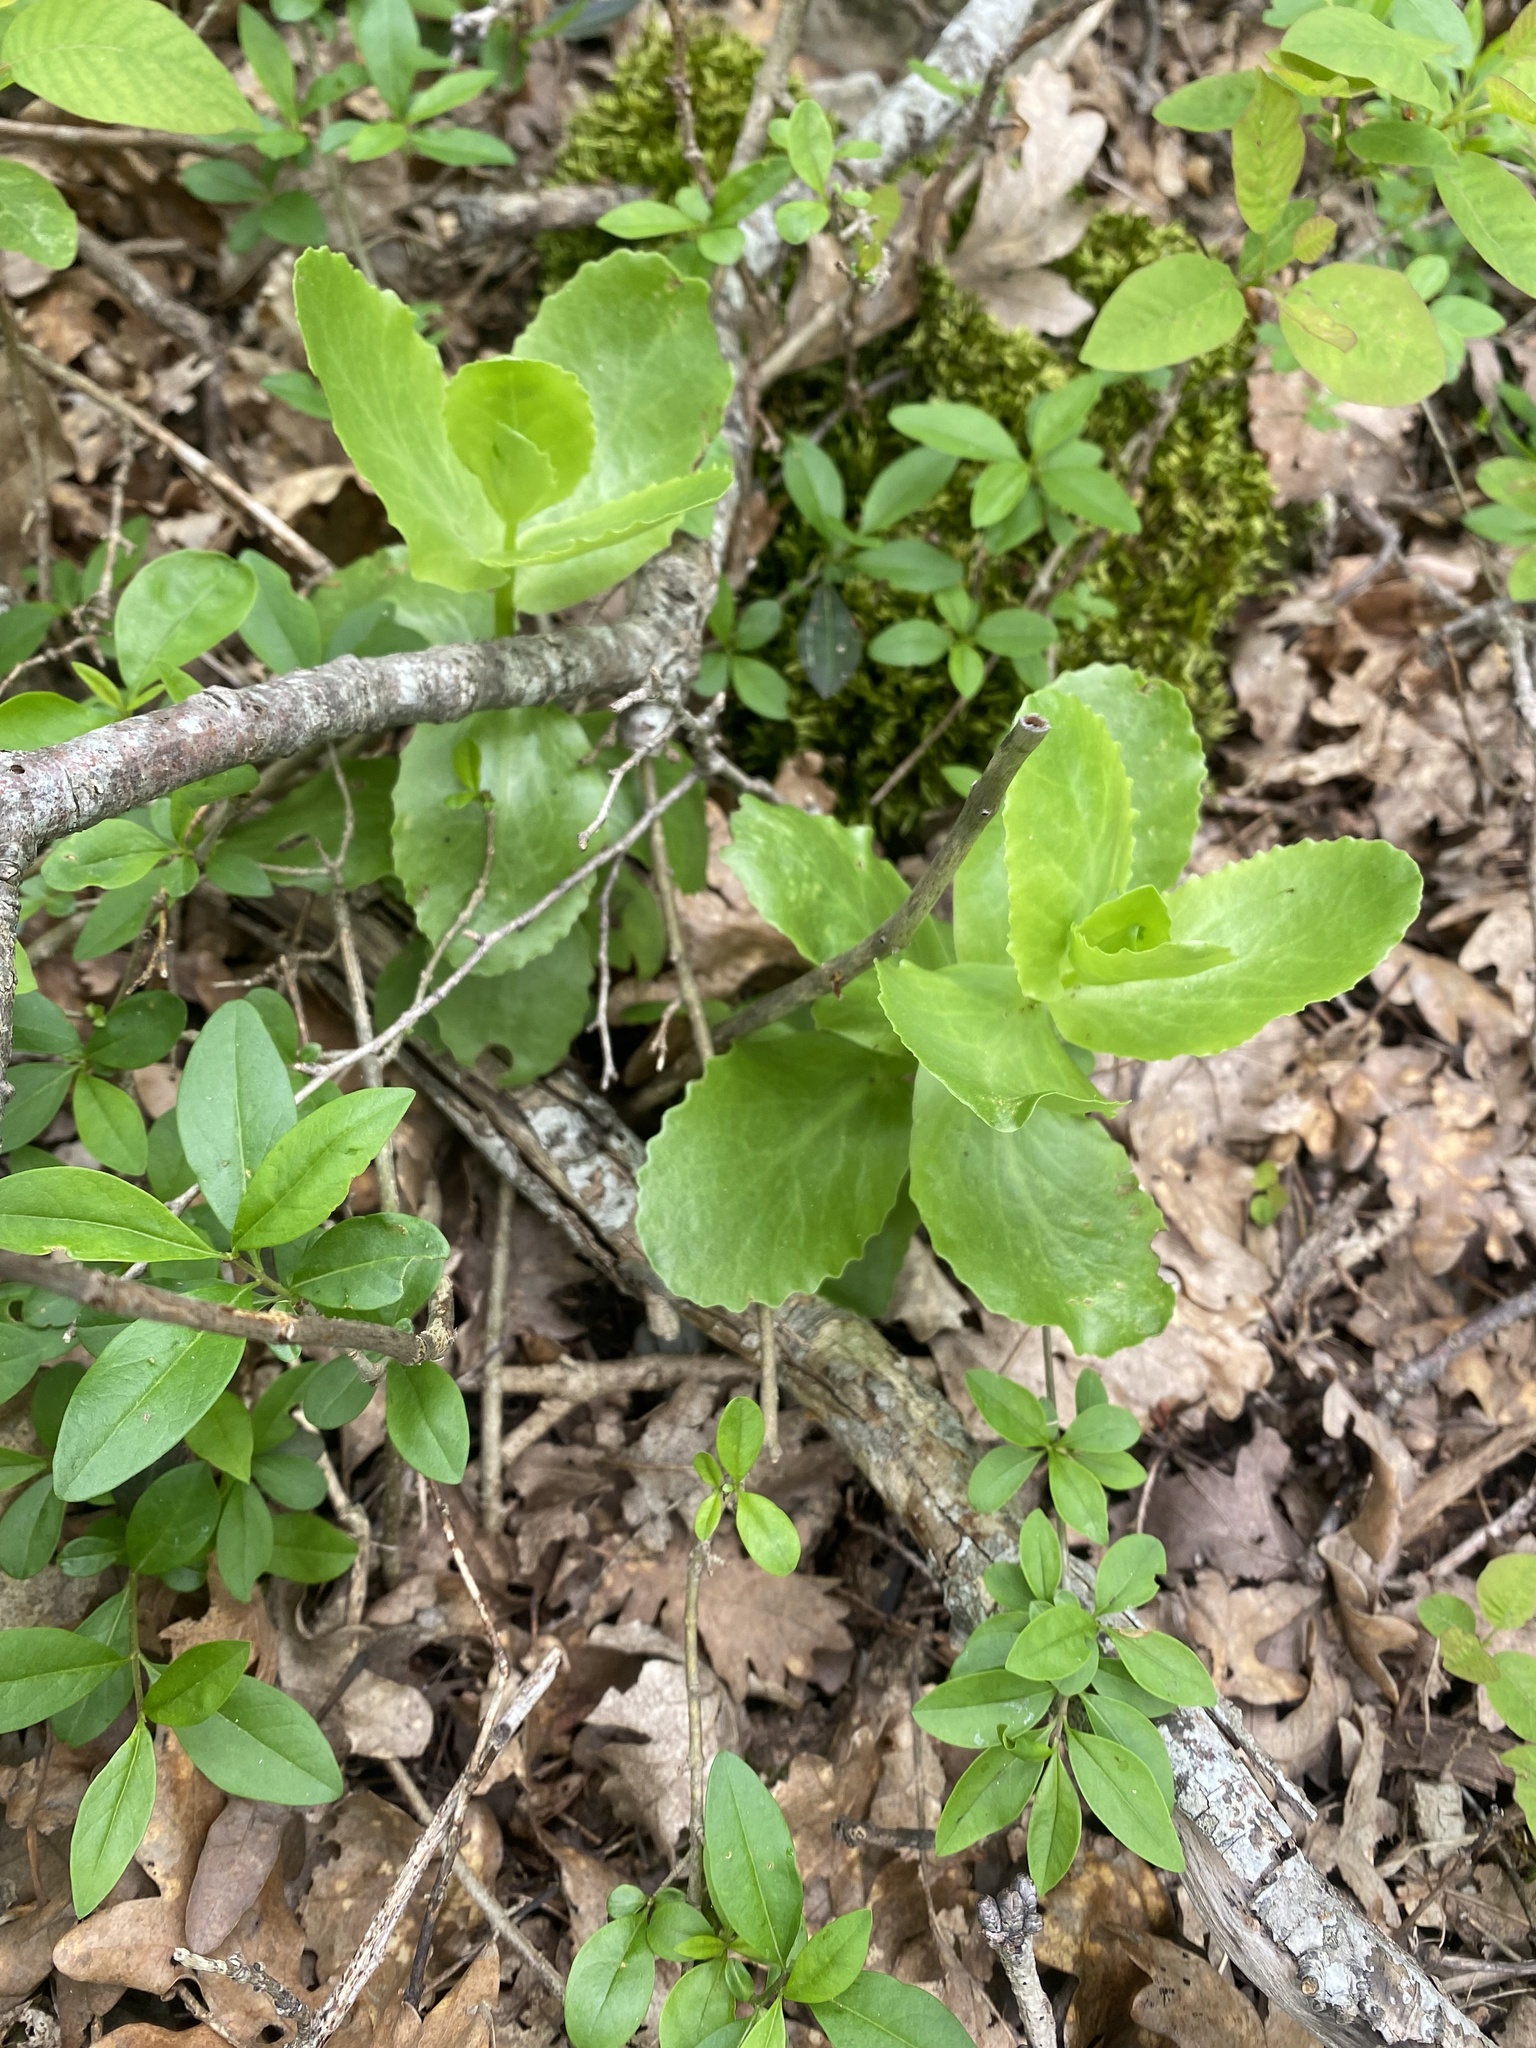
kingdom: Plantae
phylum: Tracheophyta
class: Magnoliopsida
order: Saxifragales
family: Crassulaceae
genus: Hylotelephium
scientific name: Hylotelephium maximum
